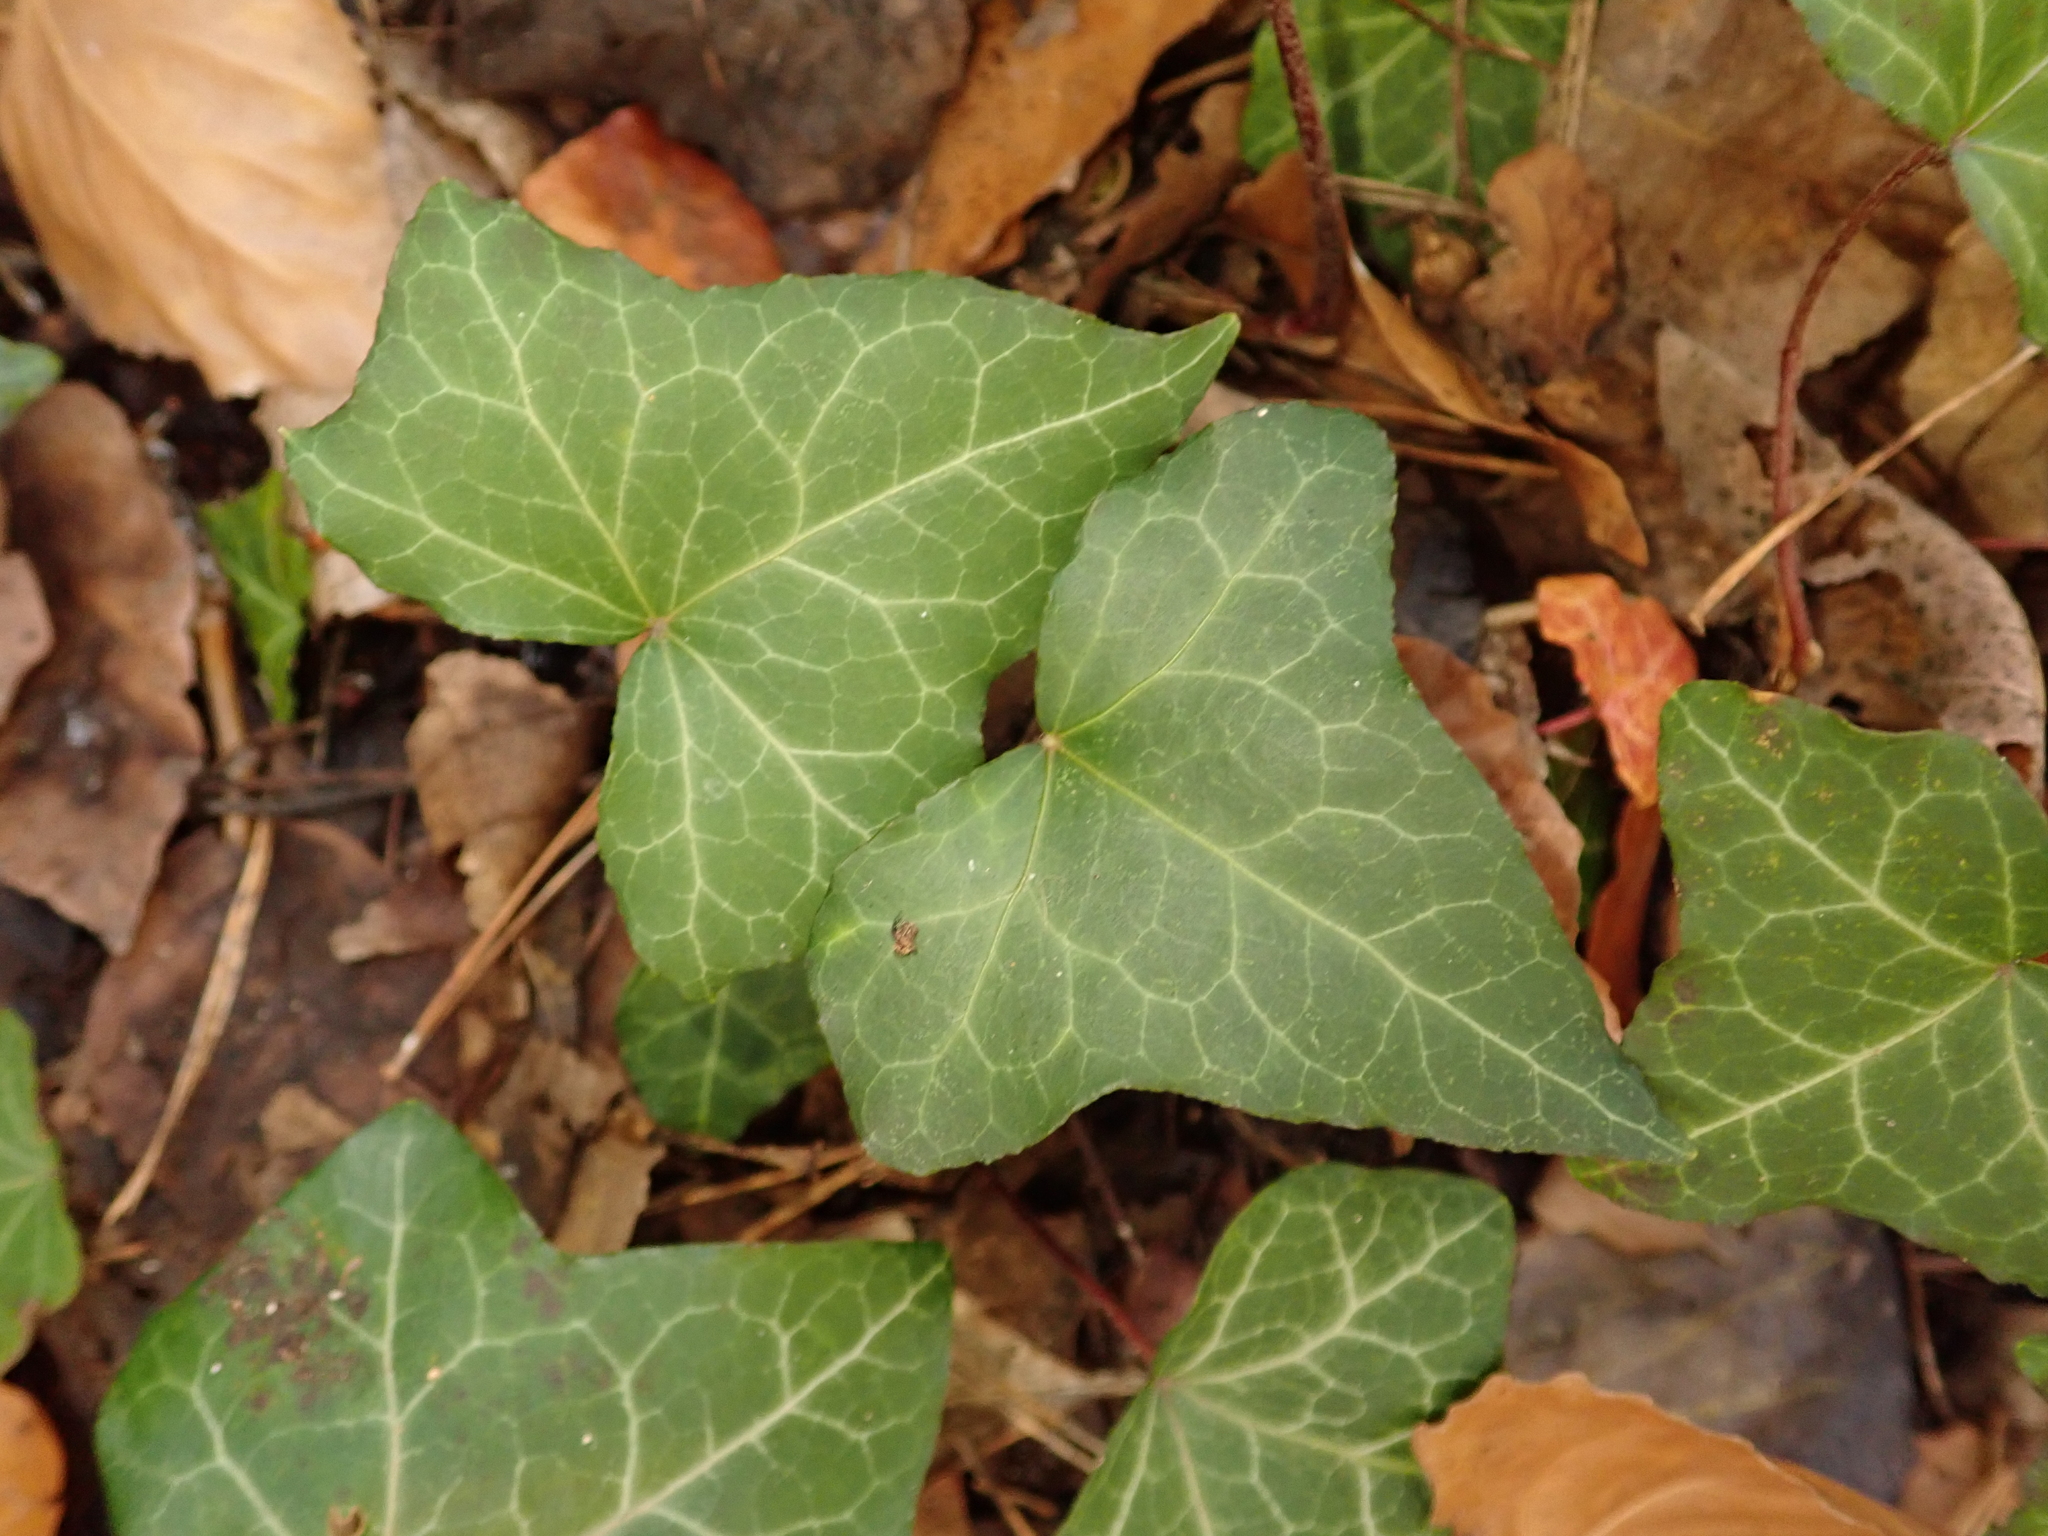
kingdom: Plantae
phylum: Tracheophyta
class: Magnoliopsida
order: Apiales
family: Araliaceae
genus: Hedera
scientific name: Hedera helix
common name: Ivy
